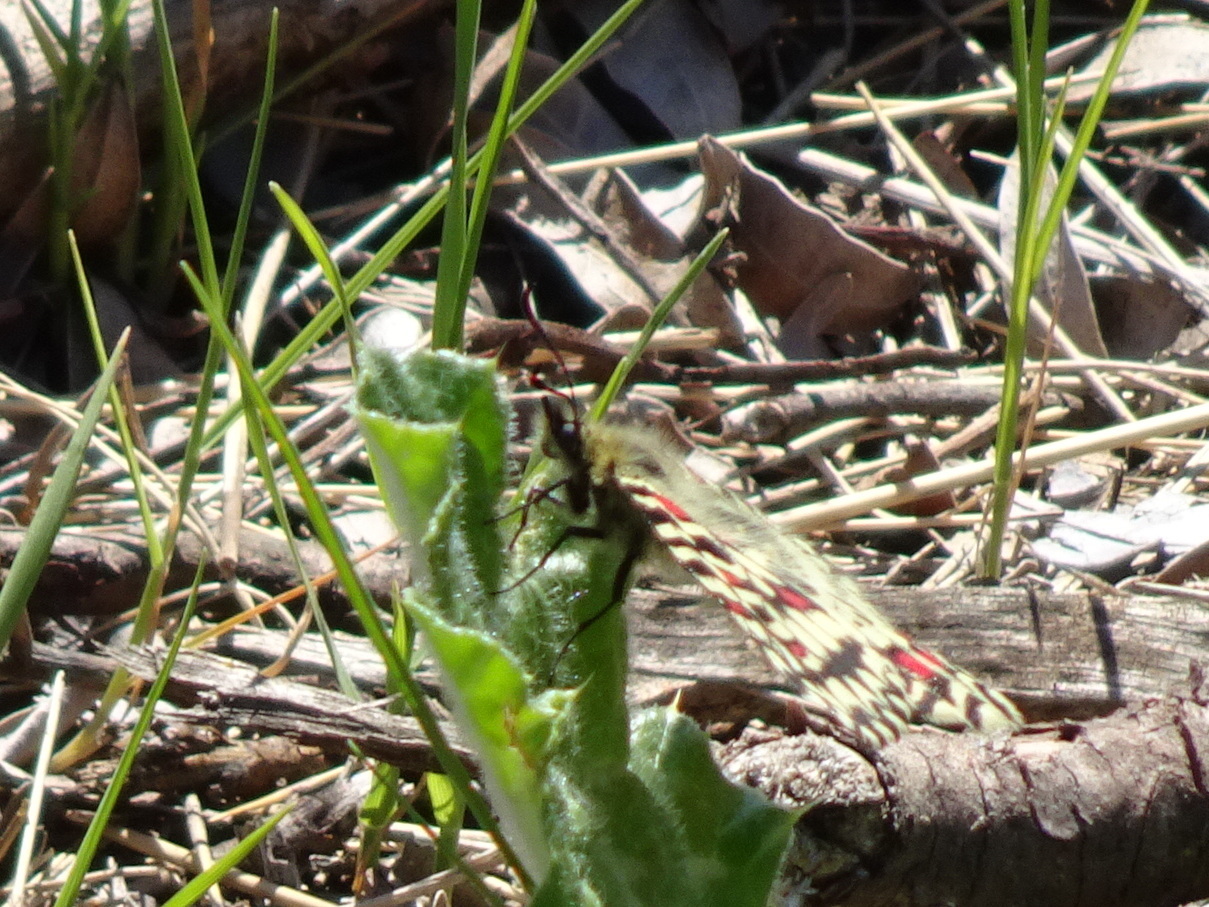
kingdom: Animalia
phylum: Arthropoda
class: Insecta
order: Lepidoptera
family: Papilionidae
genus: Zerynthia
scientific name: Zerynthia rumina
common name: Spanish festoon
